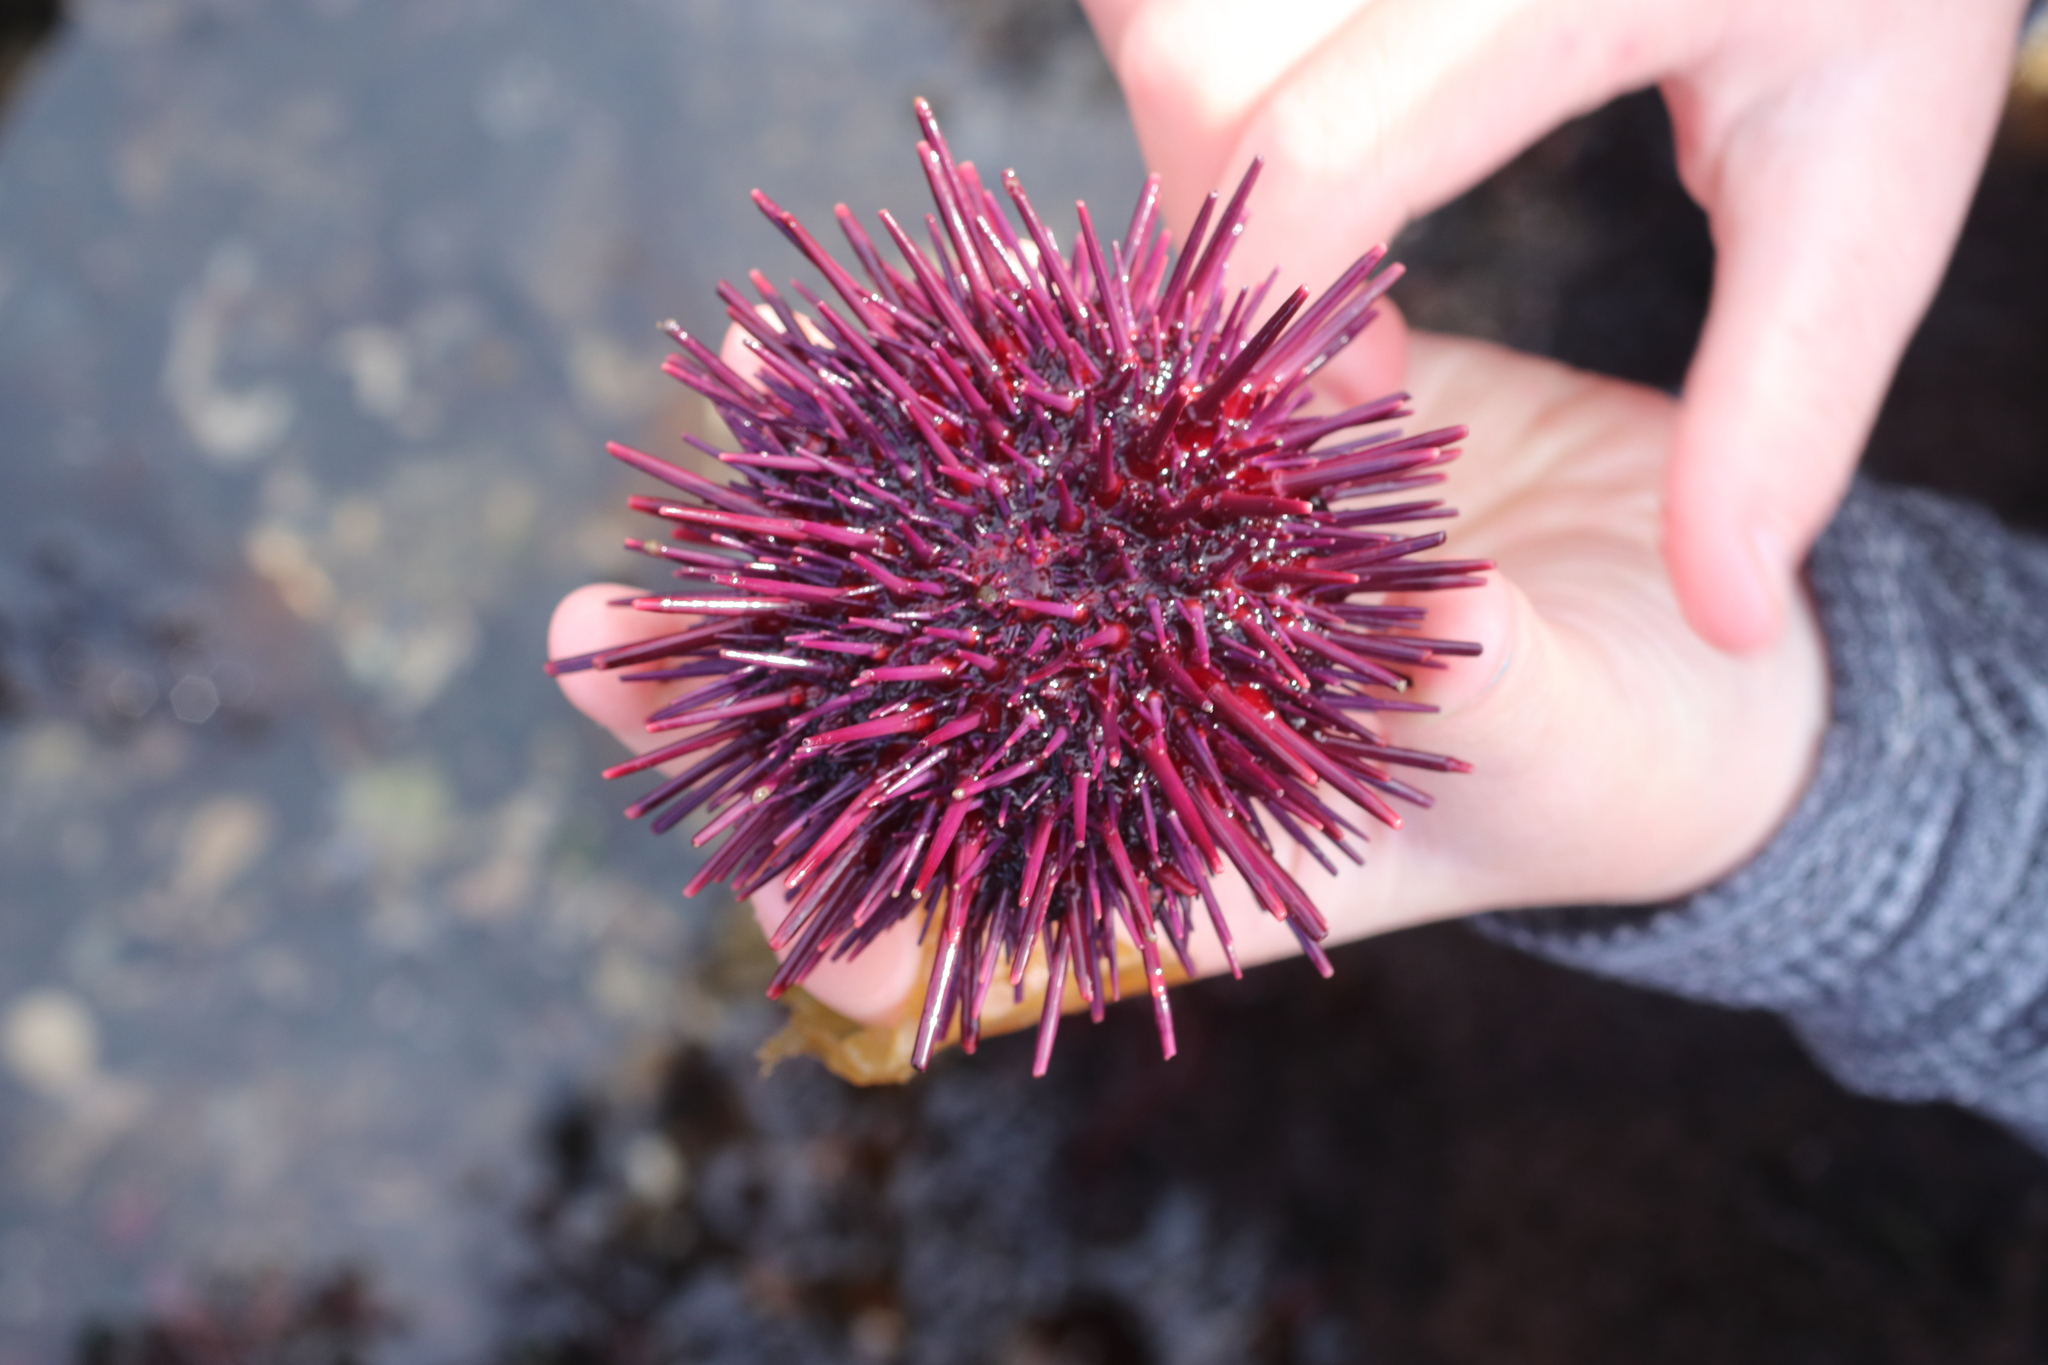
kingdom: Animalia
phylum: Echinodermata
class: Echinoidea
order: Camarodonta
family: Strongylocentrotidae
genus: Mesocentrotus
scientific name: Mesocentrotus franciscanus
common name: Red sea urchin
